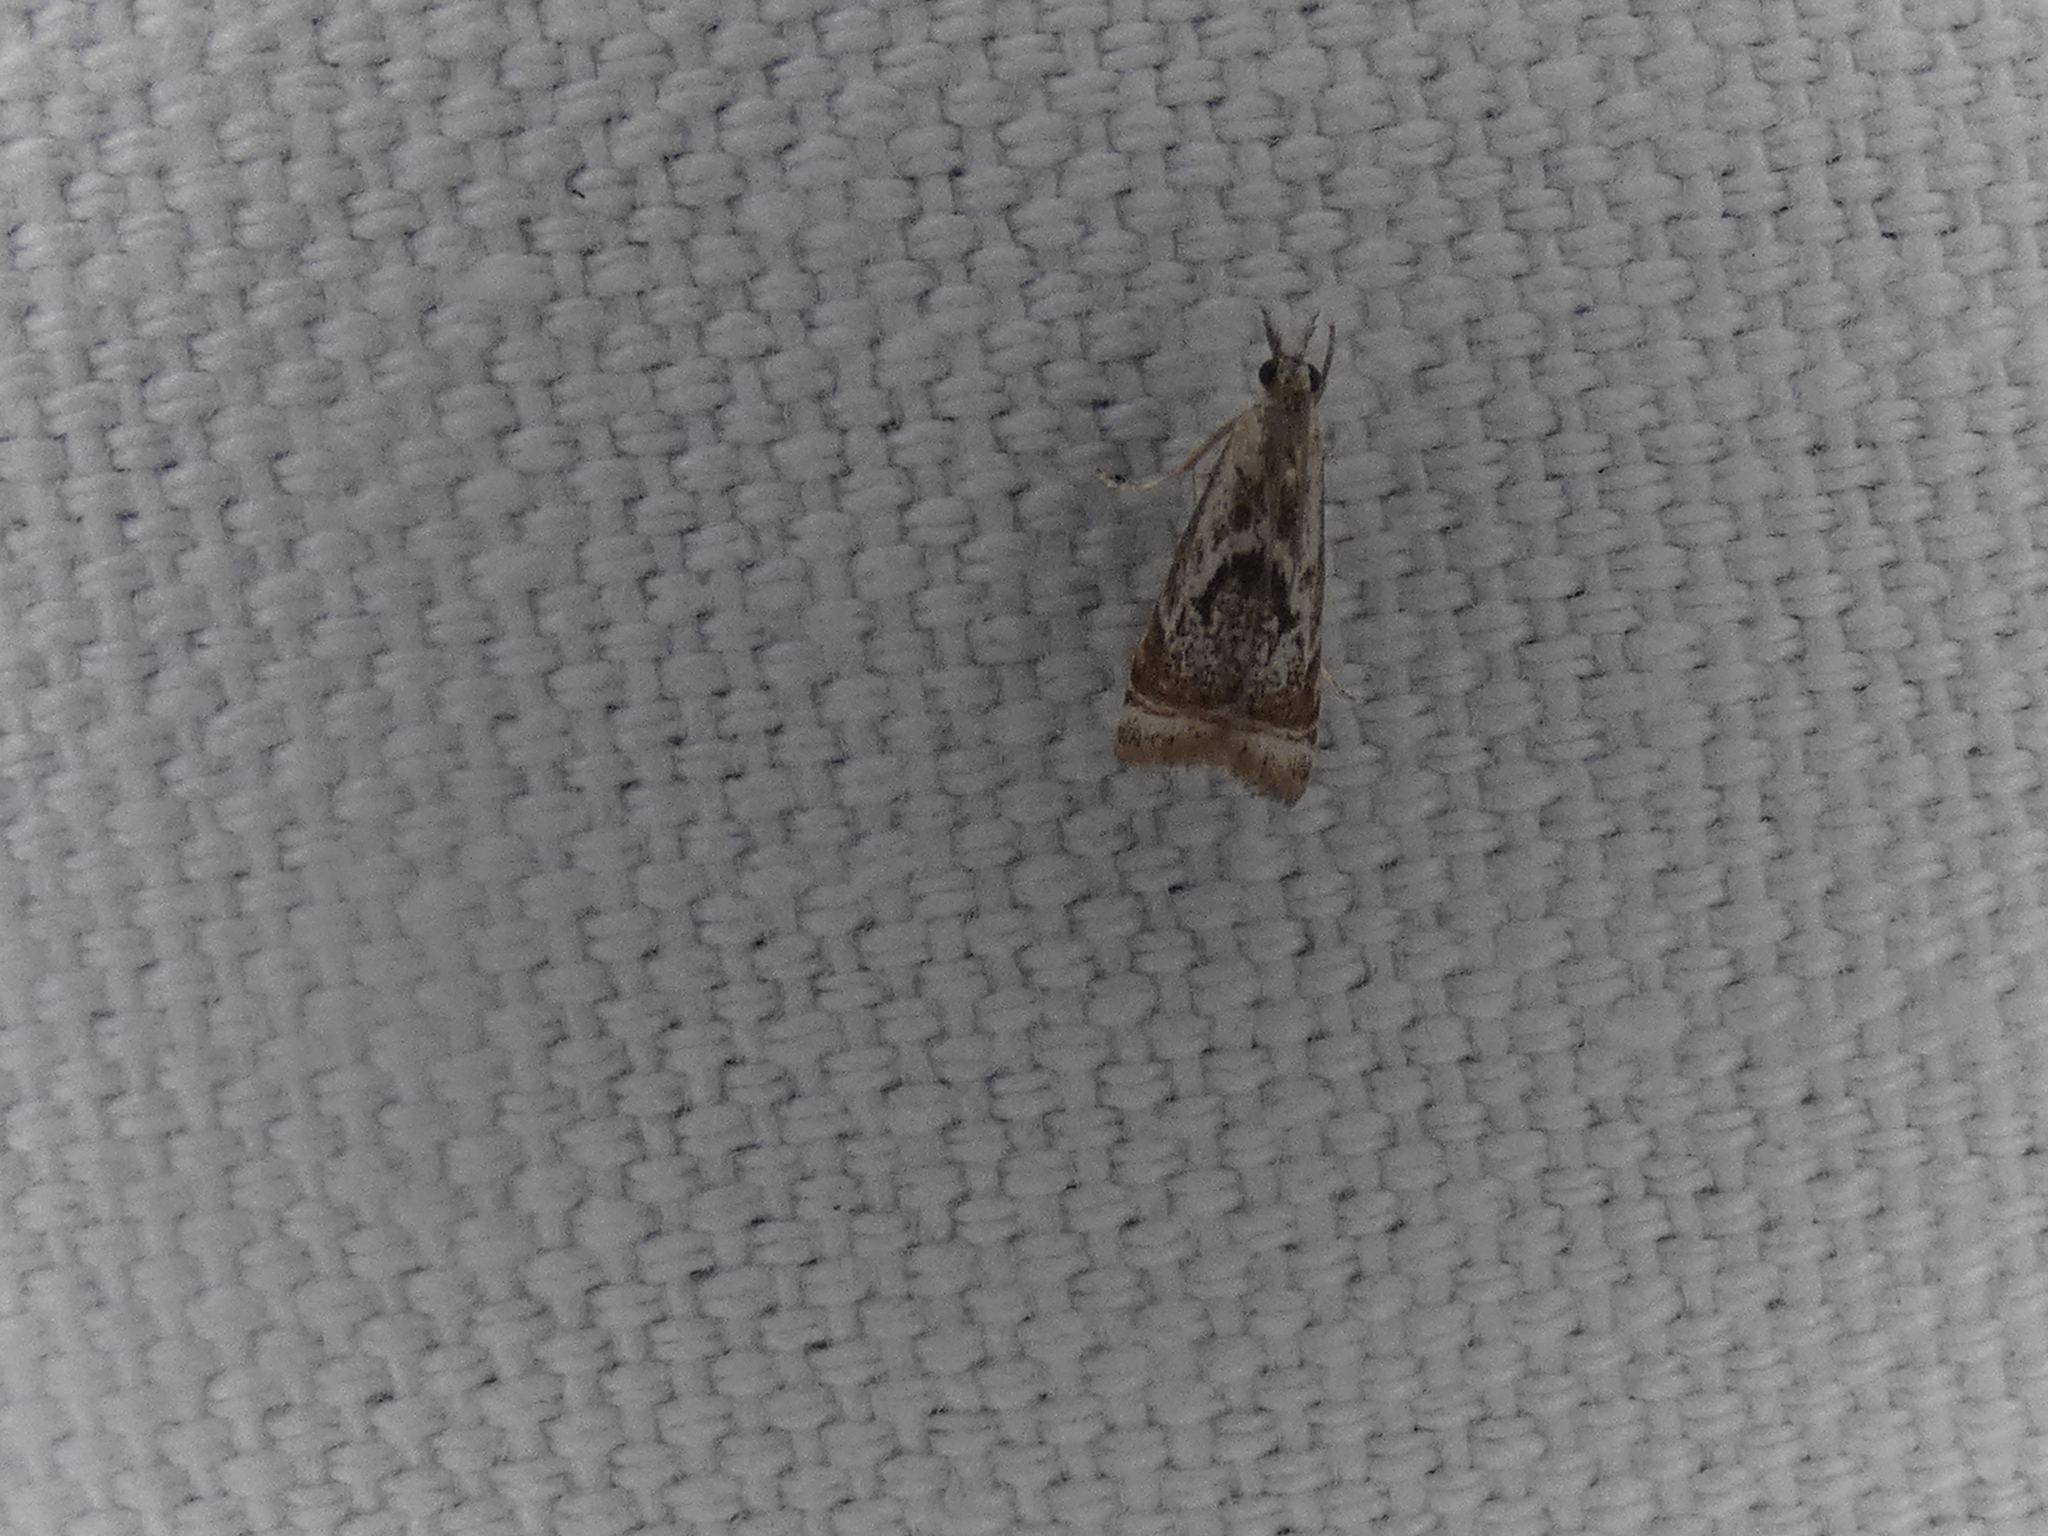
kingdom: Animalia
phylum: Arthropoda
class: Insecta
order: Lepidoptera
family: Crambidae
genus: Microcrambus
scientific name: Microcrambus elegans
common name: Elegant grass-veneer
